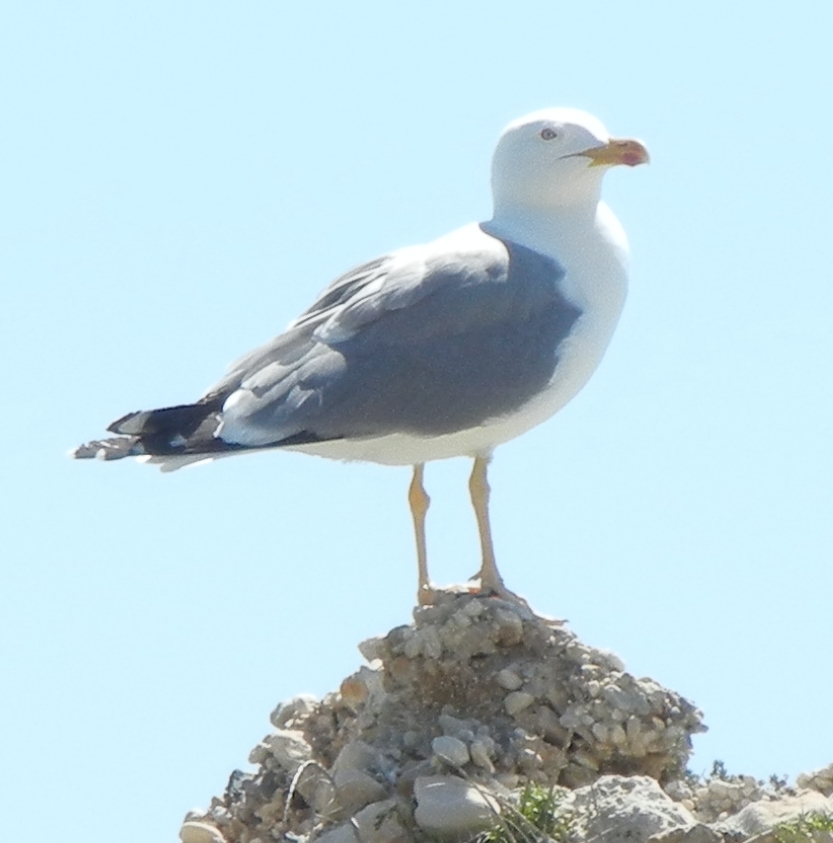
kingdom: Animalia
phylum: Chordata
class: Aves
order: Charadriiformes
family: Laridae
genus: Larus
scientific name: Larus michahellis
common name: Yellow-legged gull
